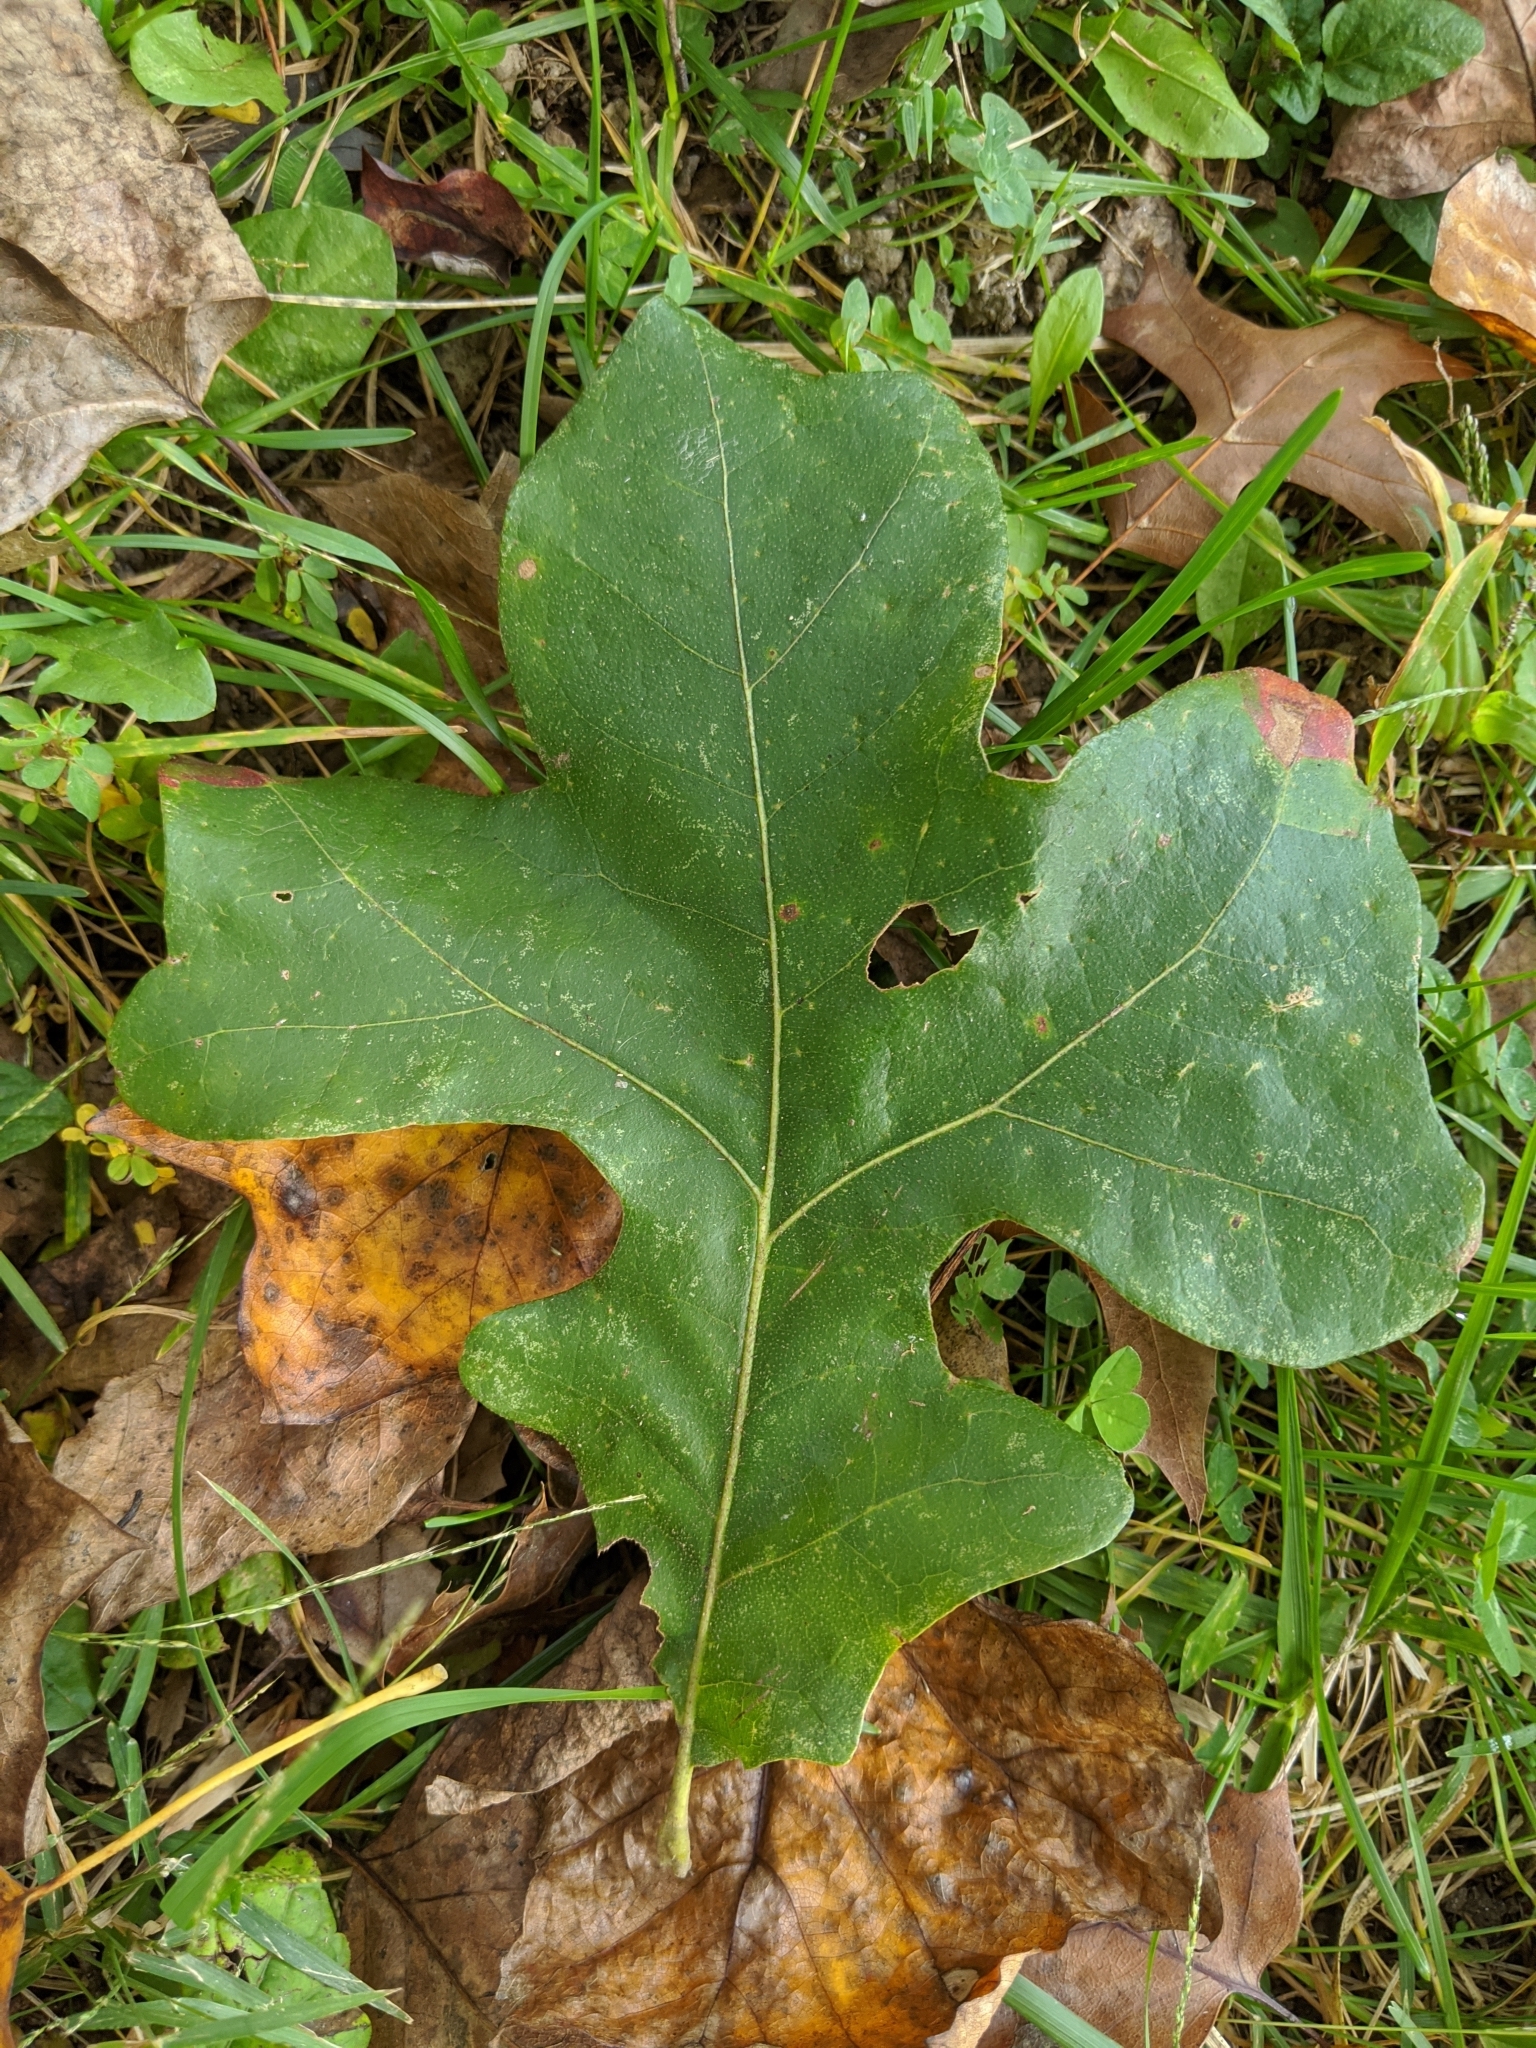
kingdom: Plantae
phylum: Tracheophyta
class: Magnoliopsida
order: Fagales
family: Fagaceae
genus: Quercus
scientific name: Quercus stellata
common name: Post oak
